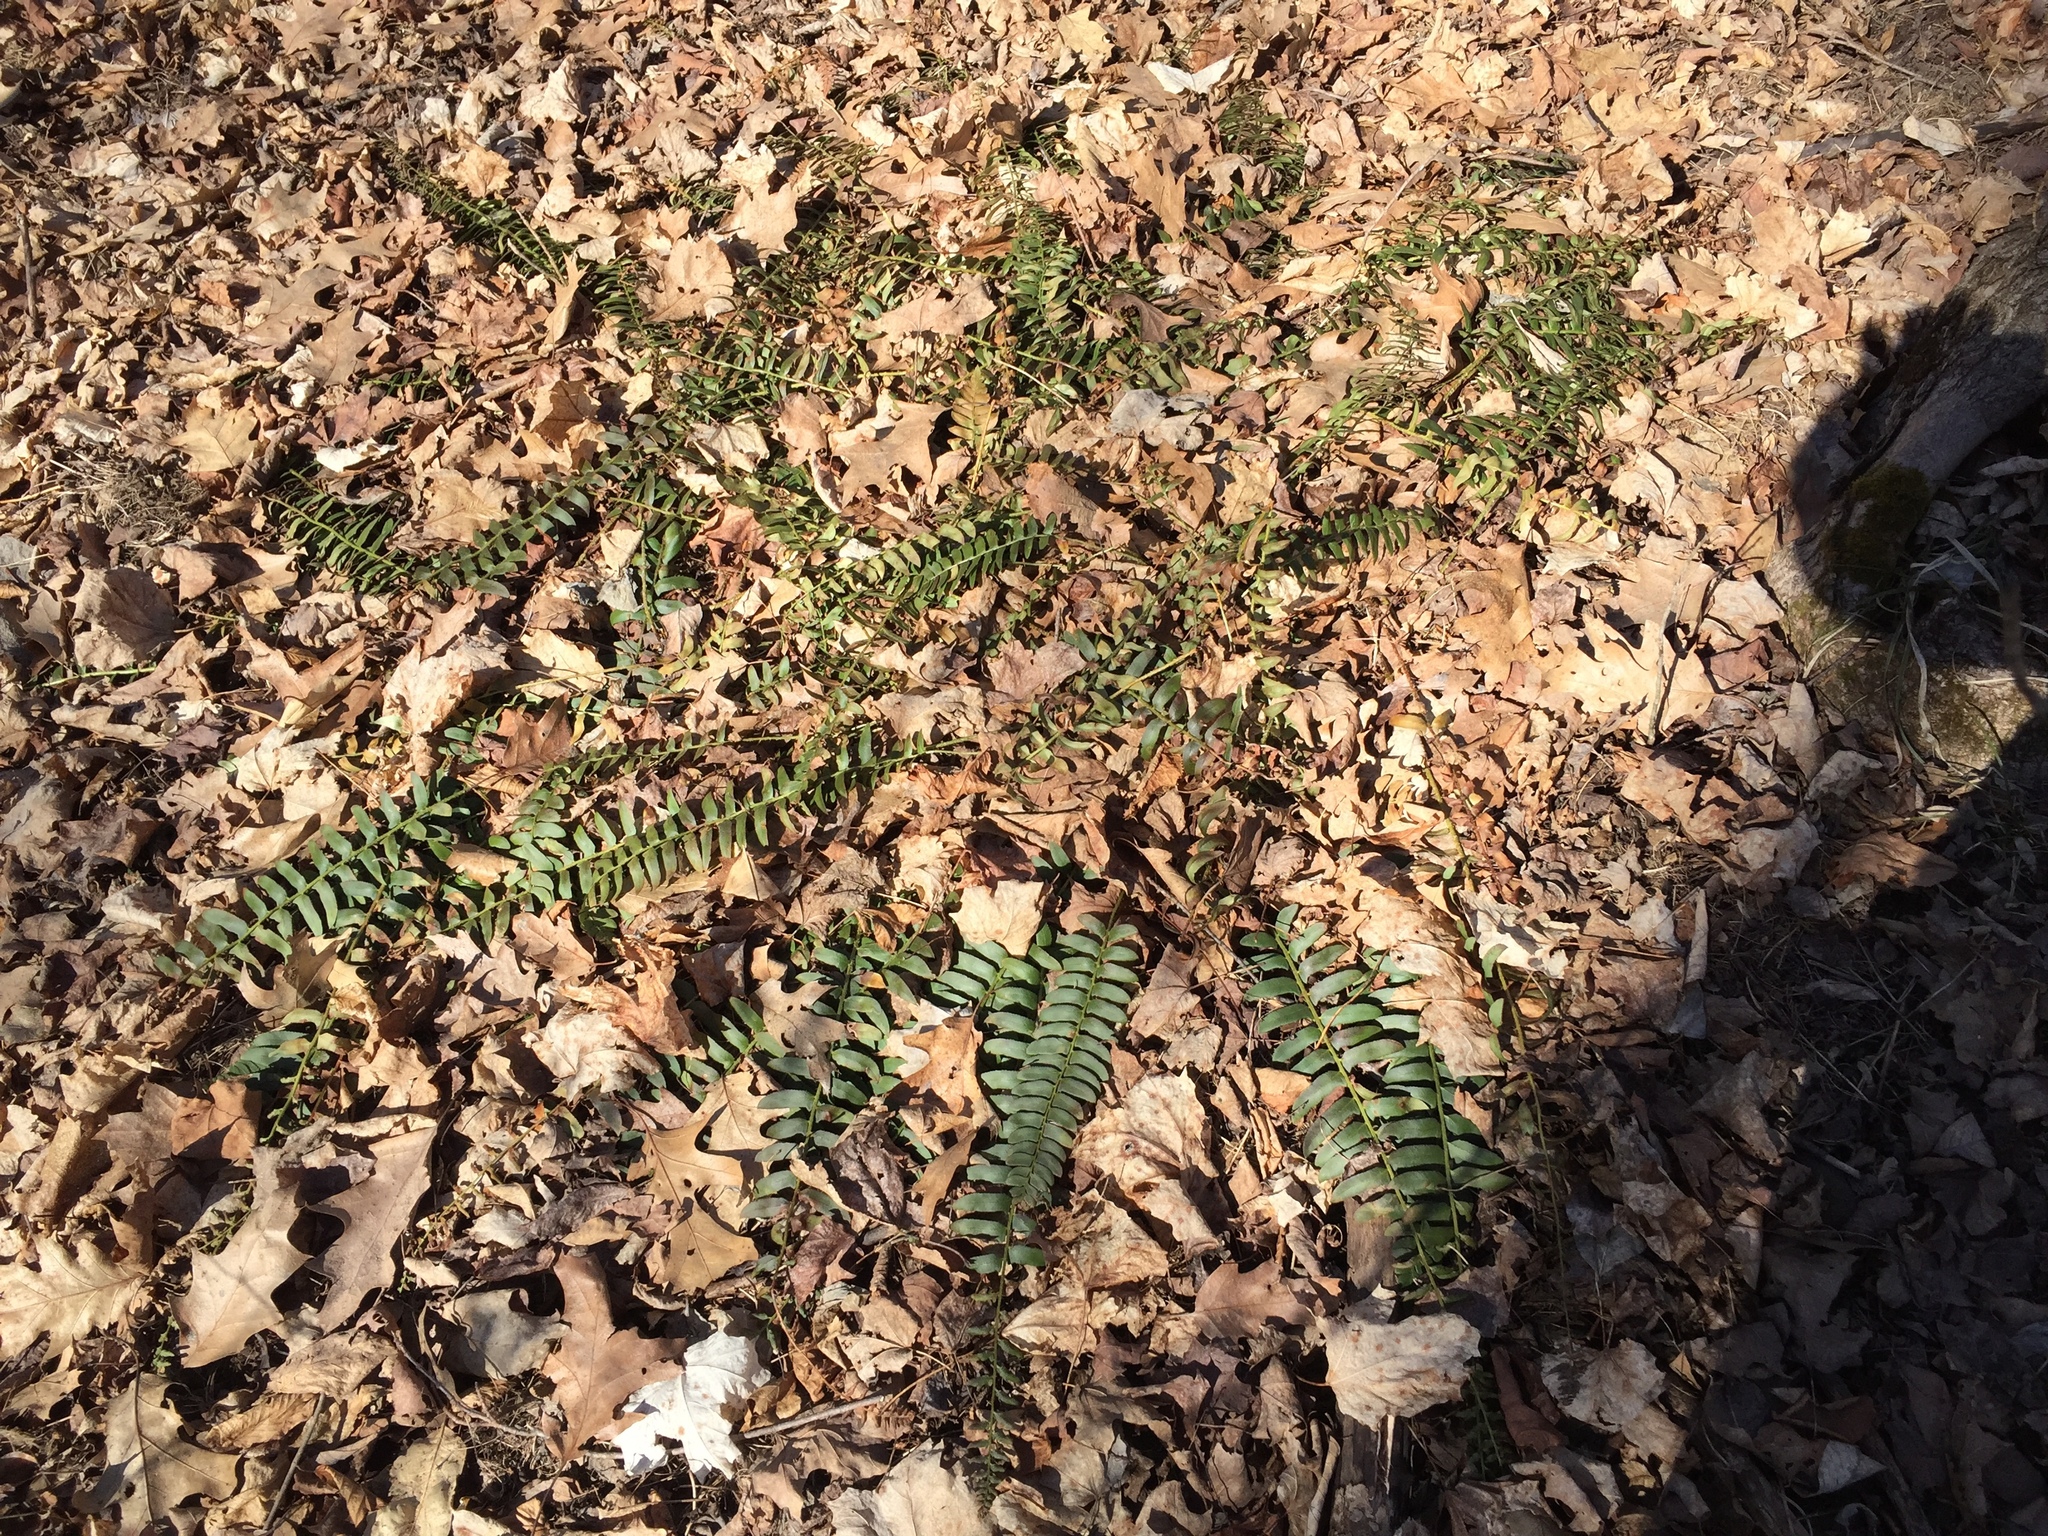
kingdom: Plantae
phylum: Tracheophyta
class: Polypodiopsida
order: Polypodiales
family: Dryopteridaceae
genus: Polystichum
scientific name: Polystichum acrostichoides
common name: Christmas fern
